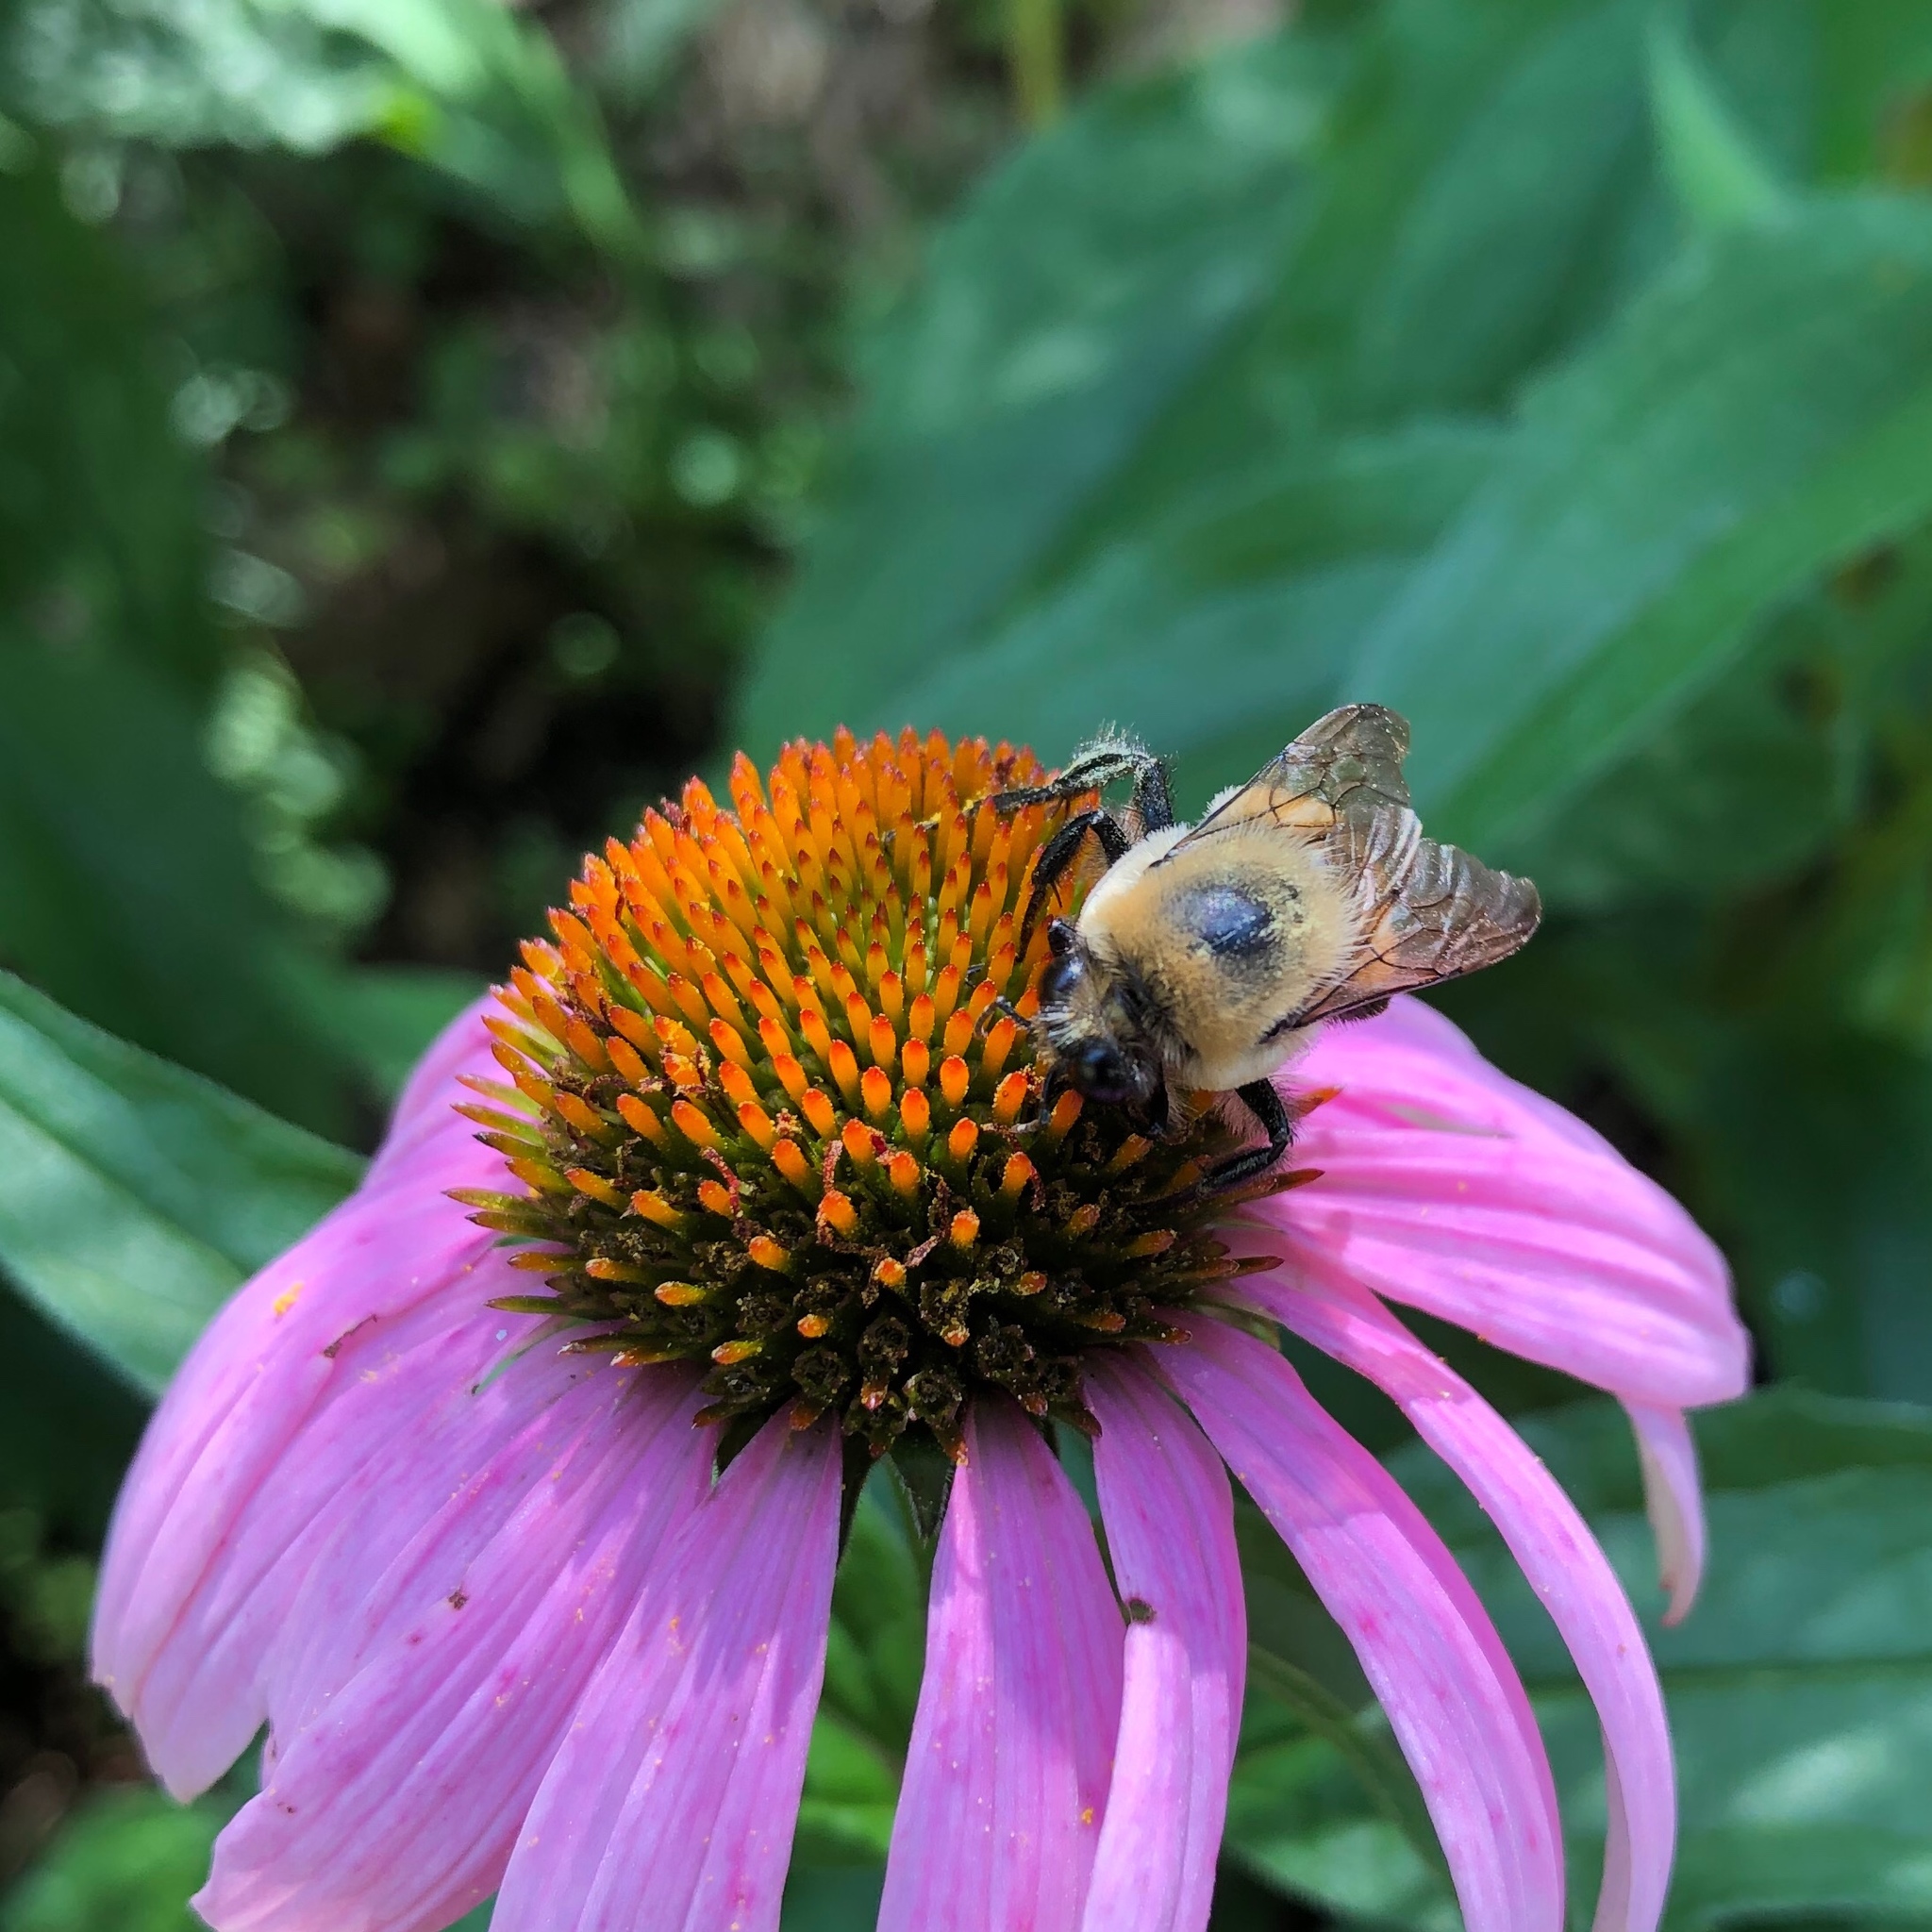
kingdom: Animalia
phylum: Arthropoda
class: Insecta
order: Hymenoptera
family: Apidae
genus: Bombus
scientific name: Bombus griseocollis
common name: Brown-belted bumble bee
